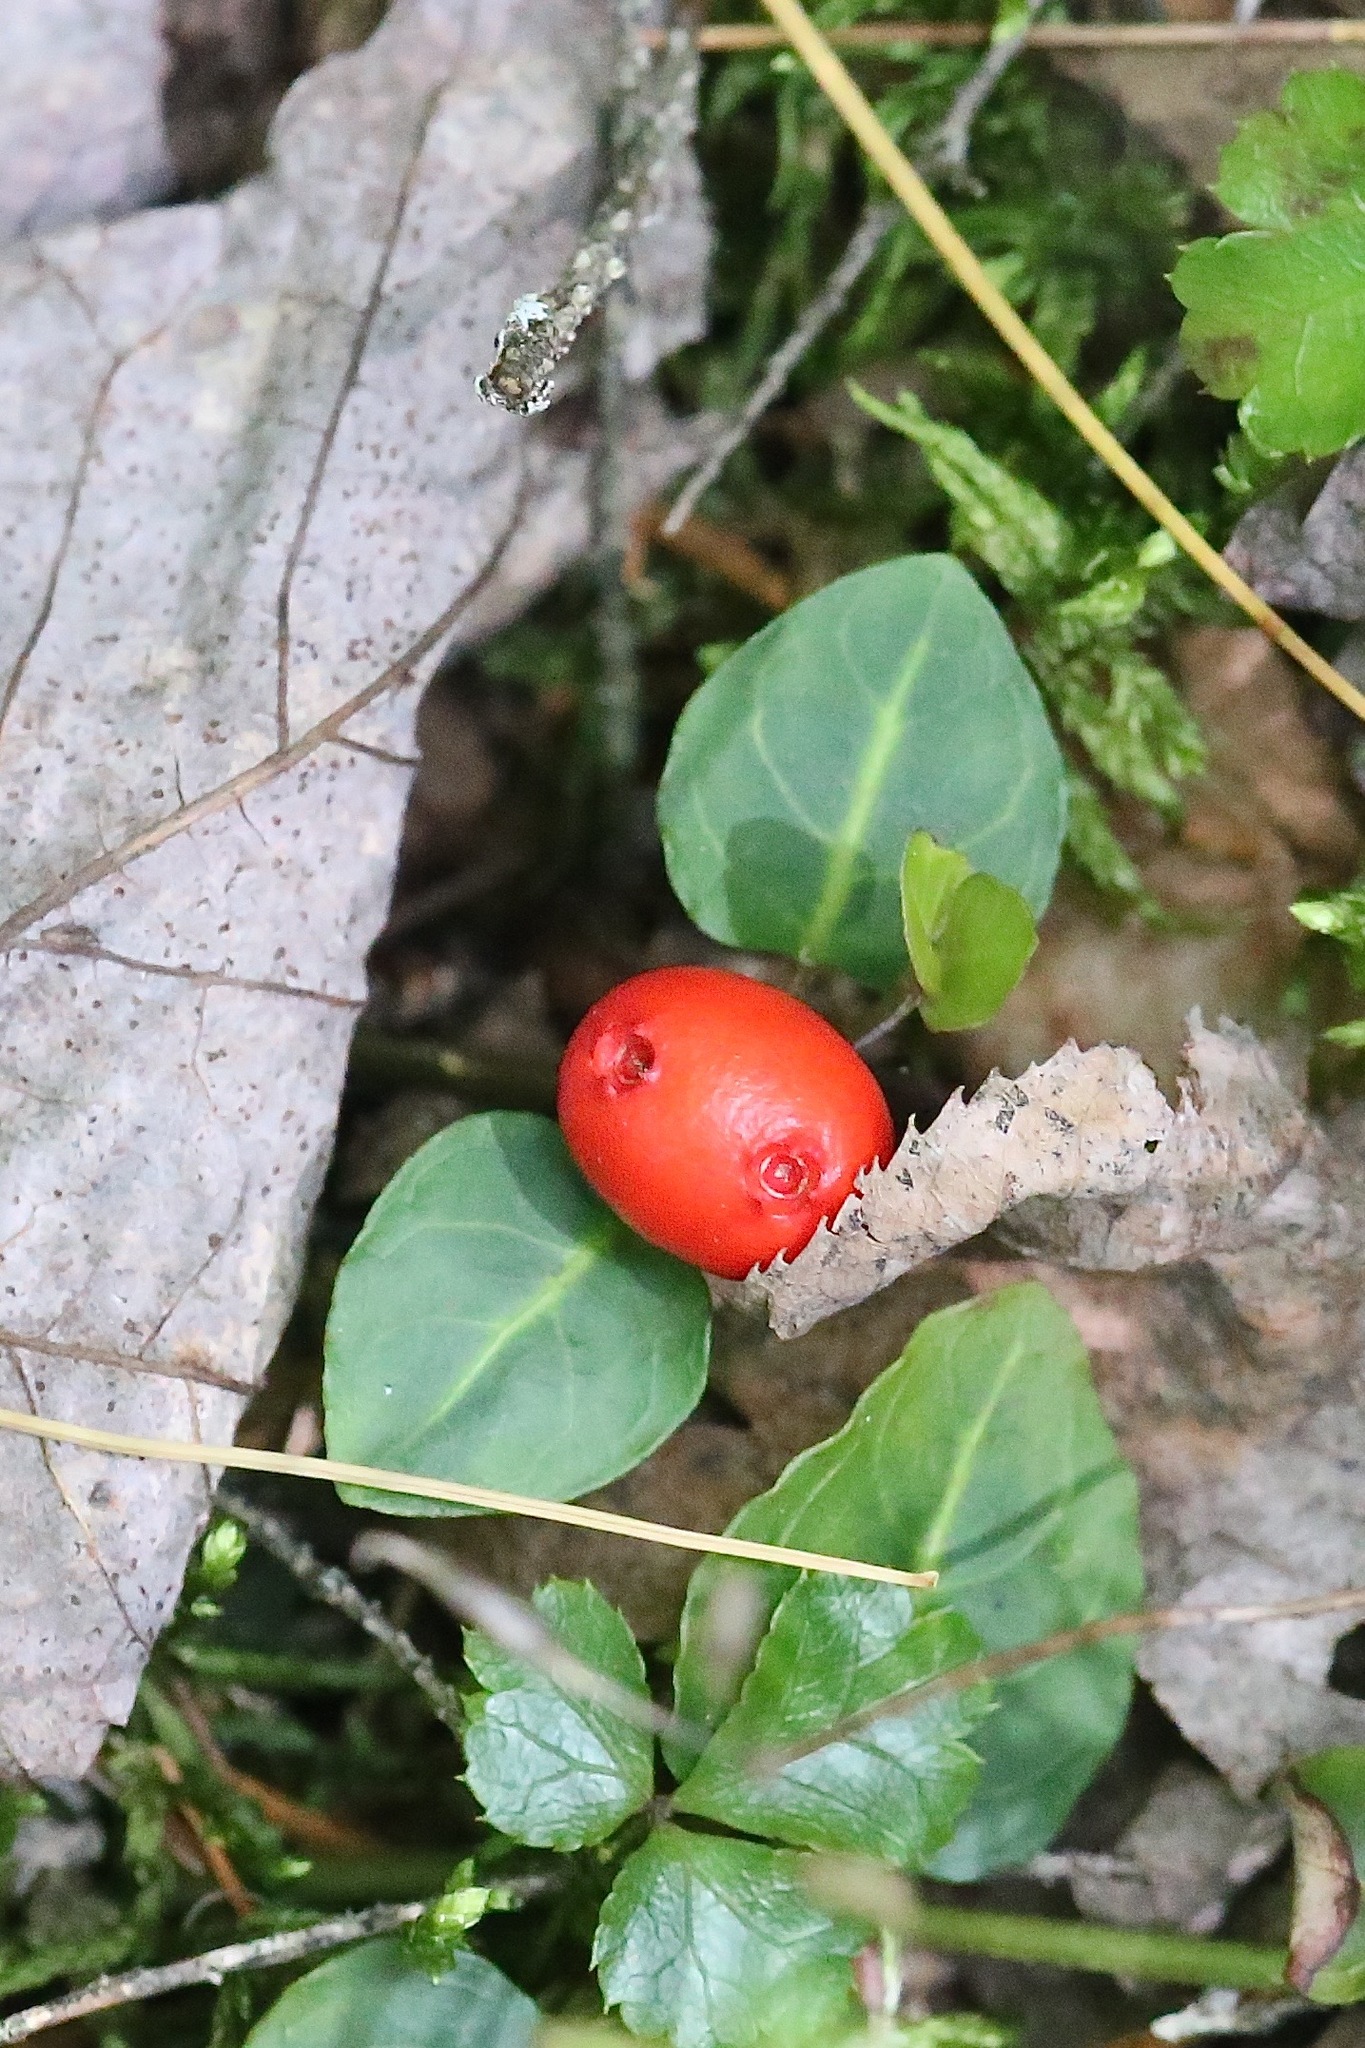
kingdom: Plantae
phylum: Tracheophyta
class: Magnoliopsida
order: Gentianales
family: Rubiaceae
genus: Mitchella
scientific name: Mitchella repens
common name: Partridge-berry
